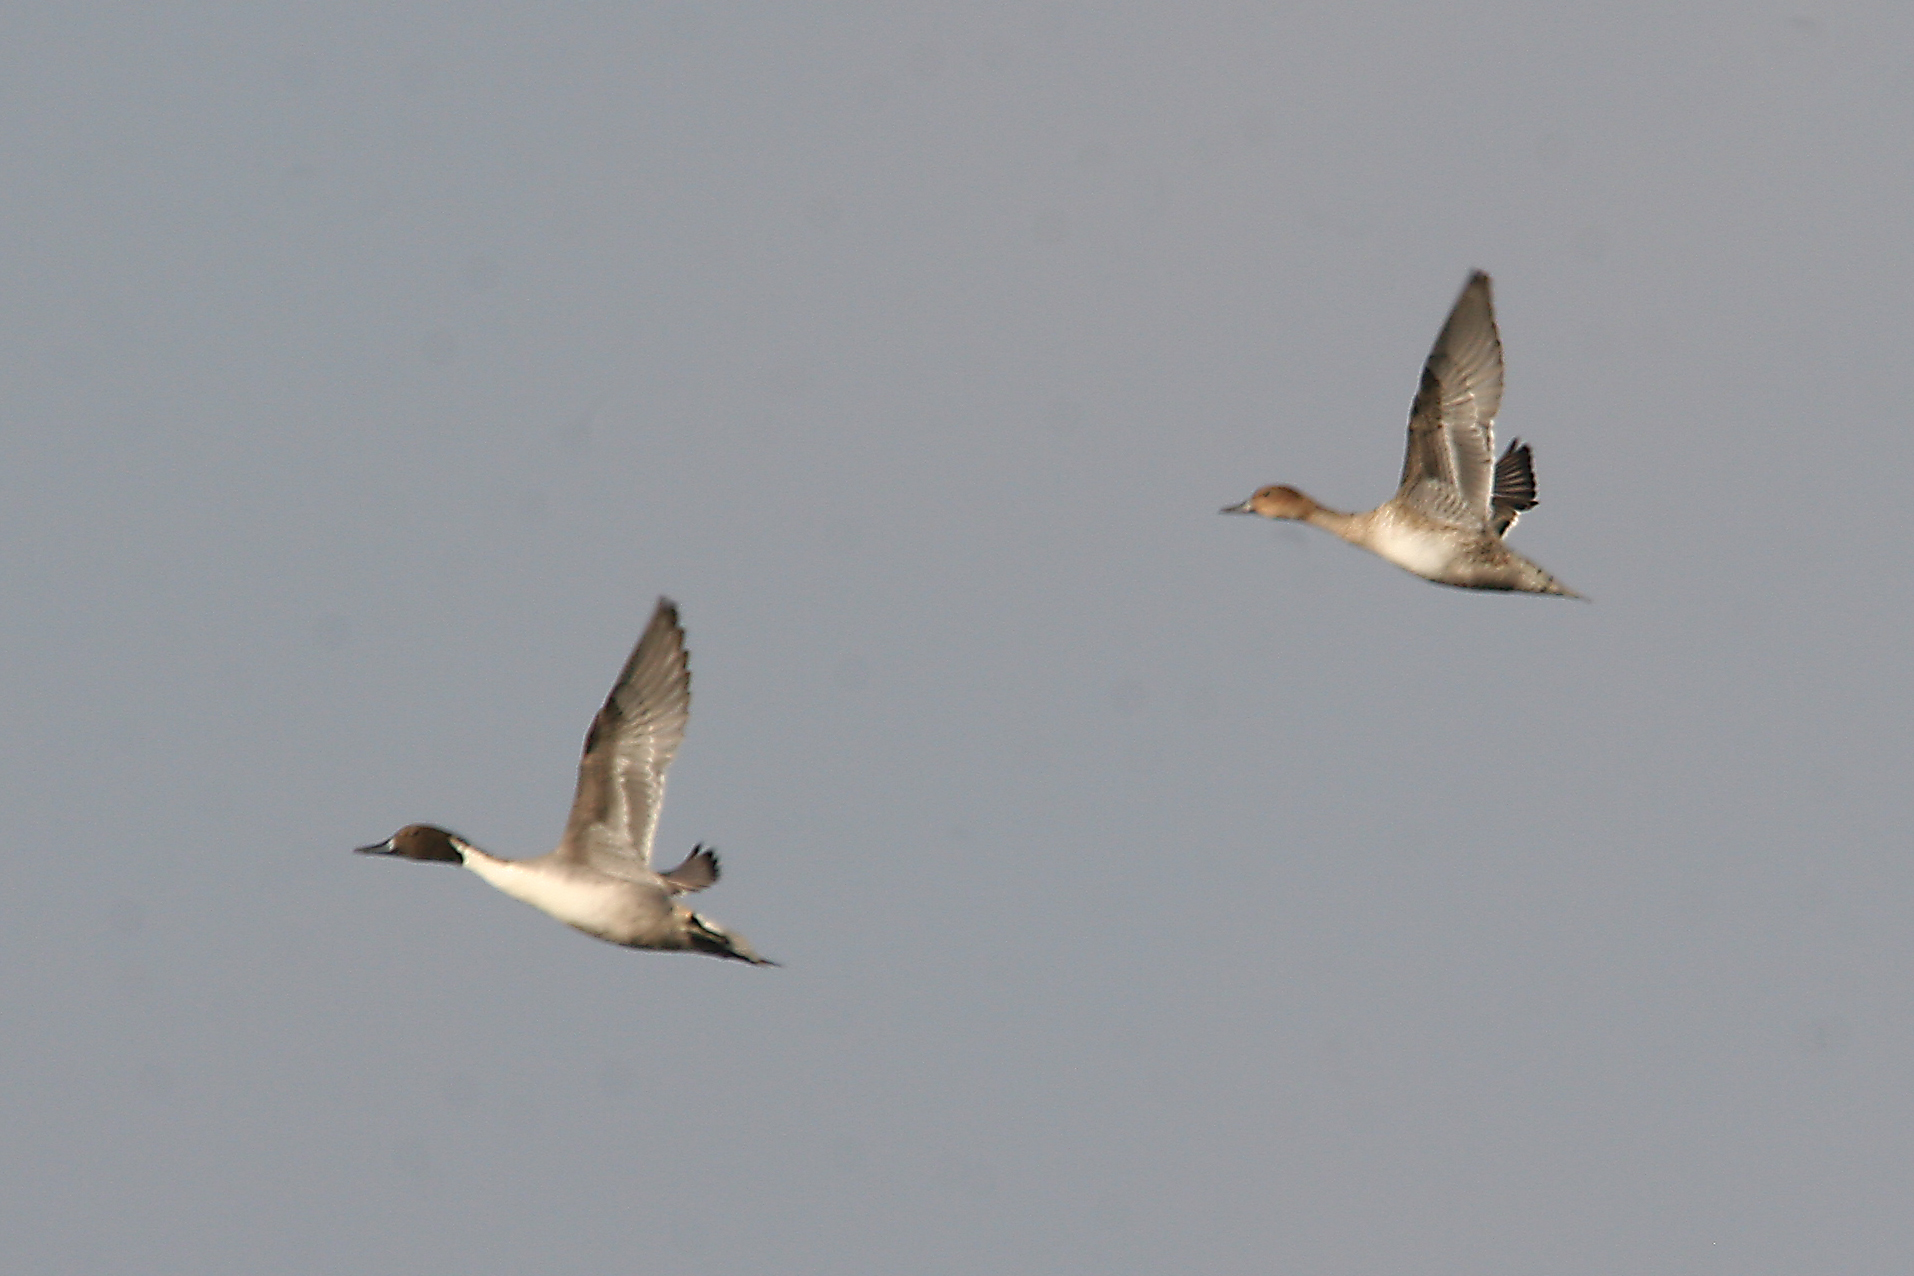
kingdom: Animalia
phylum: Chordata
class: Aves
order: Anseriformes
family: Anatidae
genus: Anas
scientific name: Anas acuta
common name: Northern pintail
